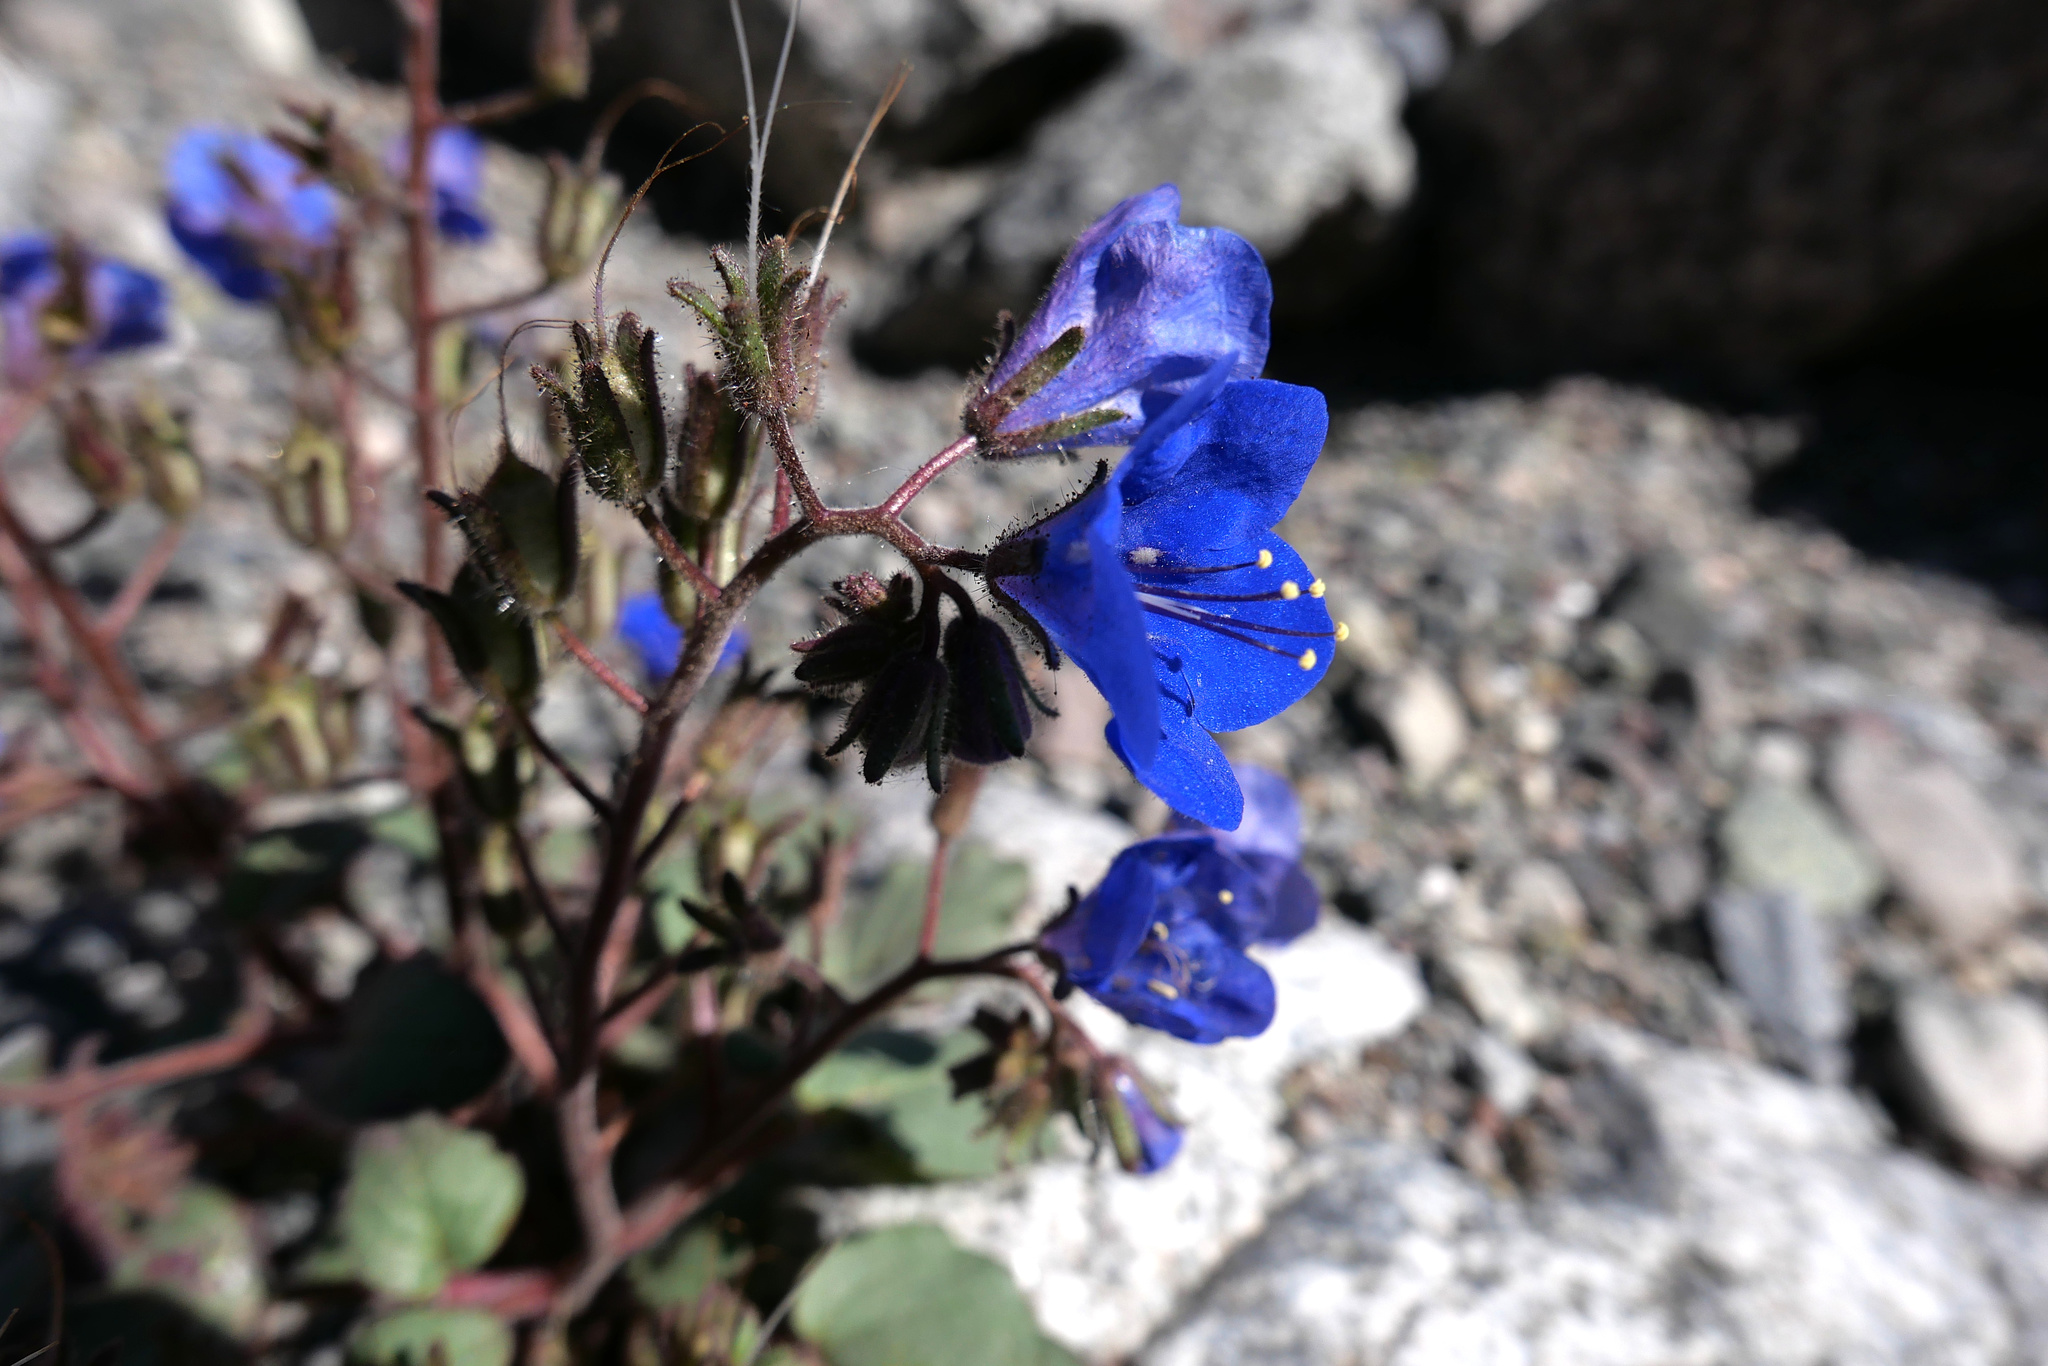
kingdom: Plantae
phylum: Tracheophyta
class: Magnoliopsida
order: Boraginales
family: Hydrophyllaceae
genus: Phacelia
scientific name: Phacelia campanularia
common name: California bluebell
